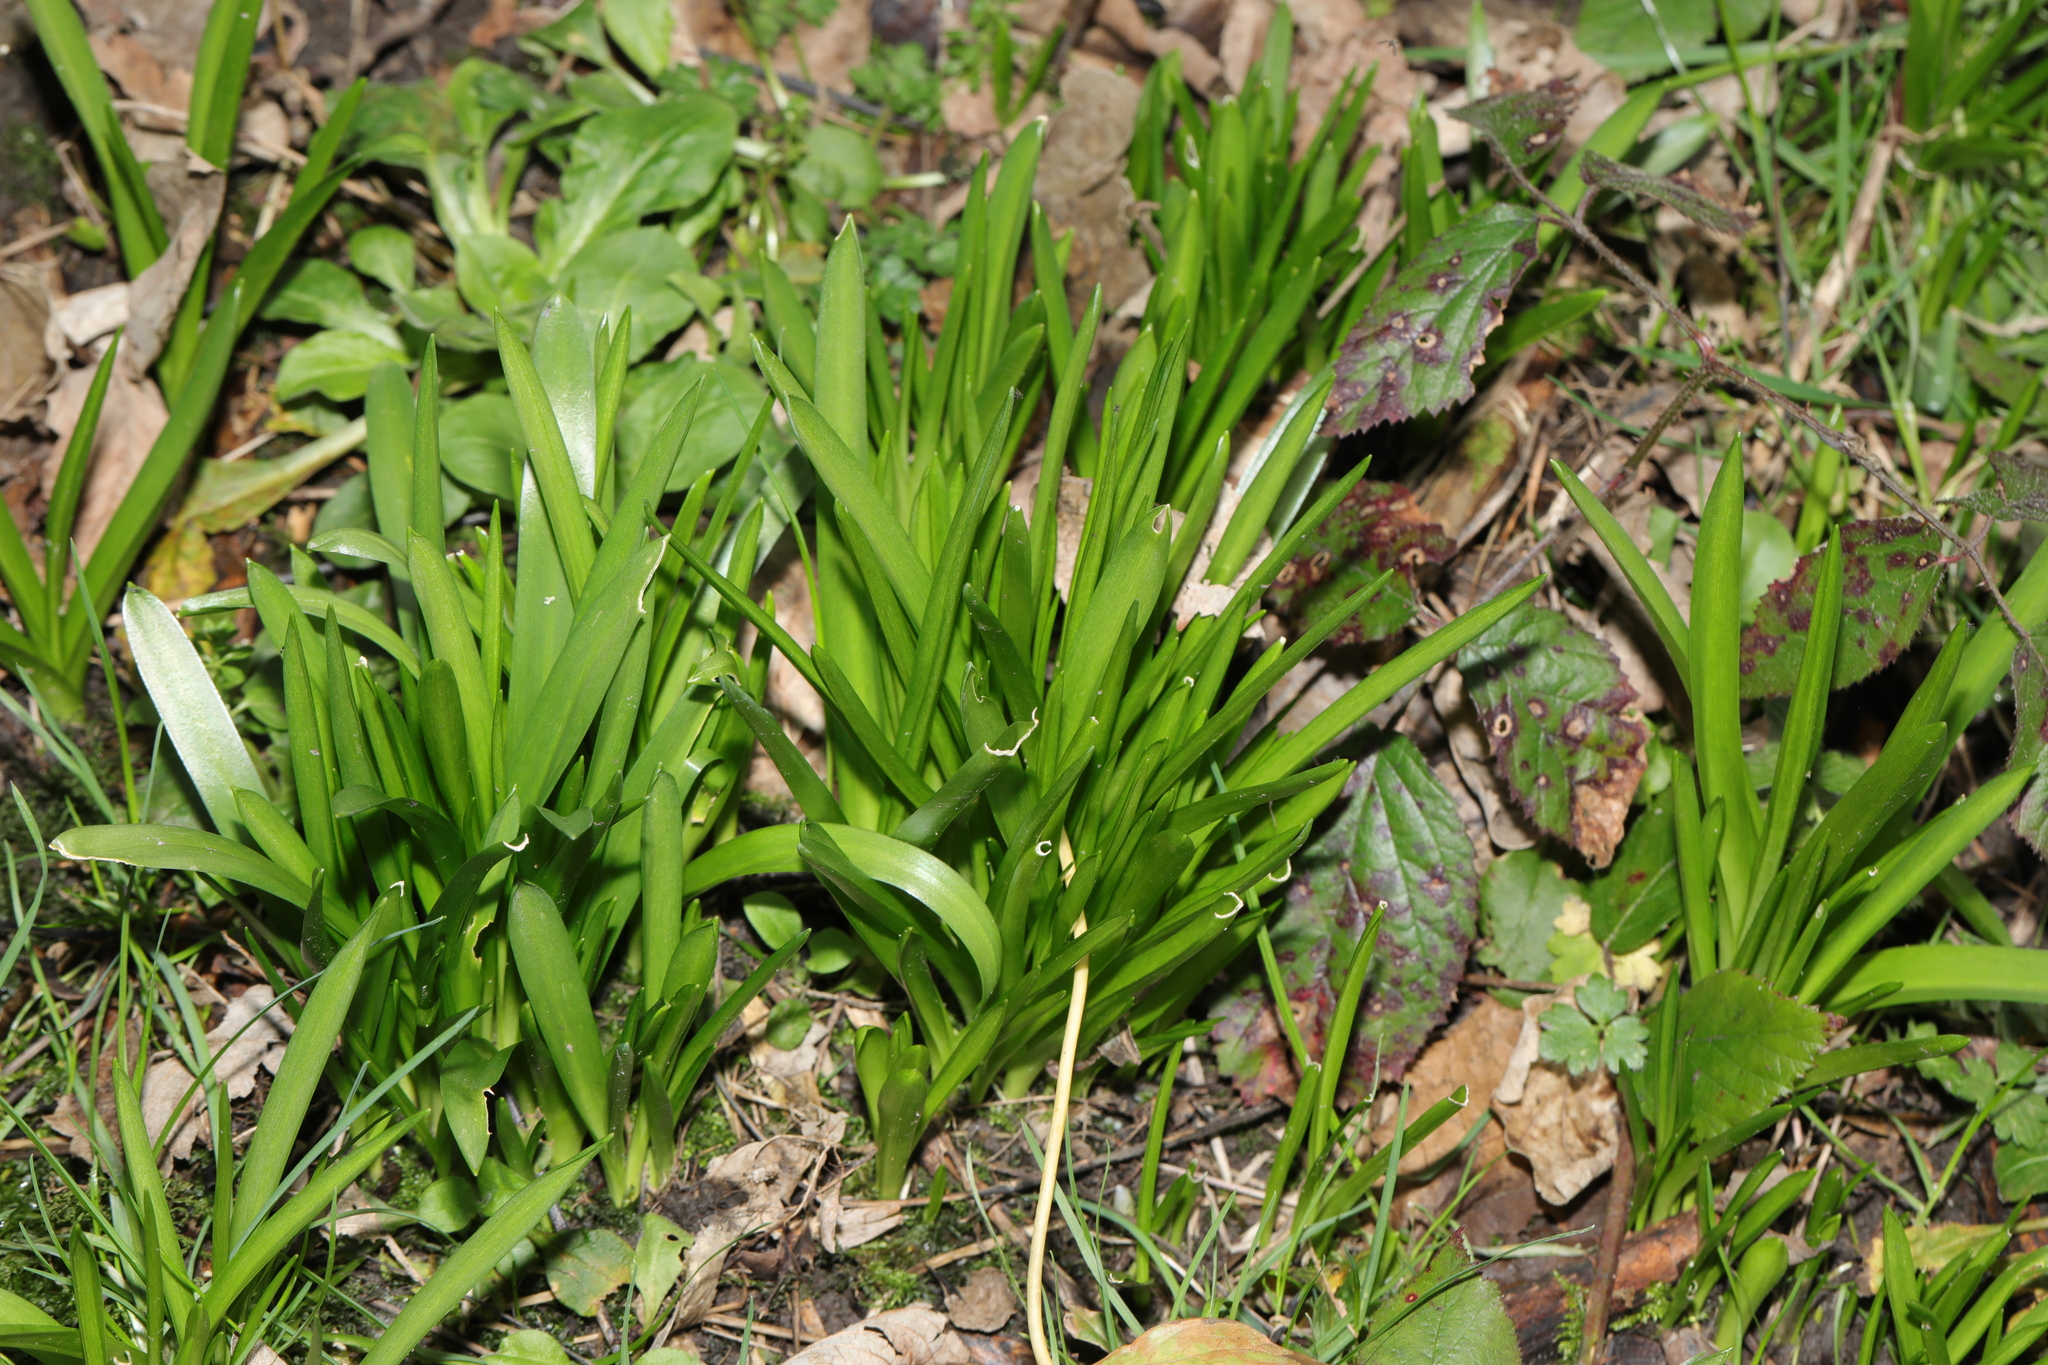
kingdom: Plantae
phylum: Tracheophyta
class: Liliopsida
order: Asparagales
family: Asparagaceae
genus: Hyacinthoides
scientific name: Hyacinthoides massartiana
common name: Hyacinthoides
